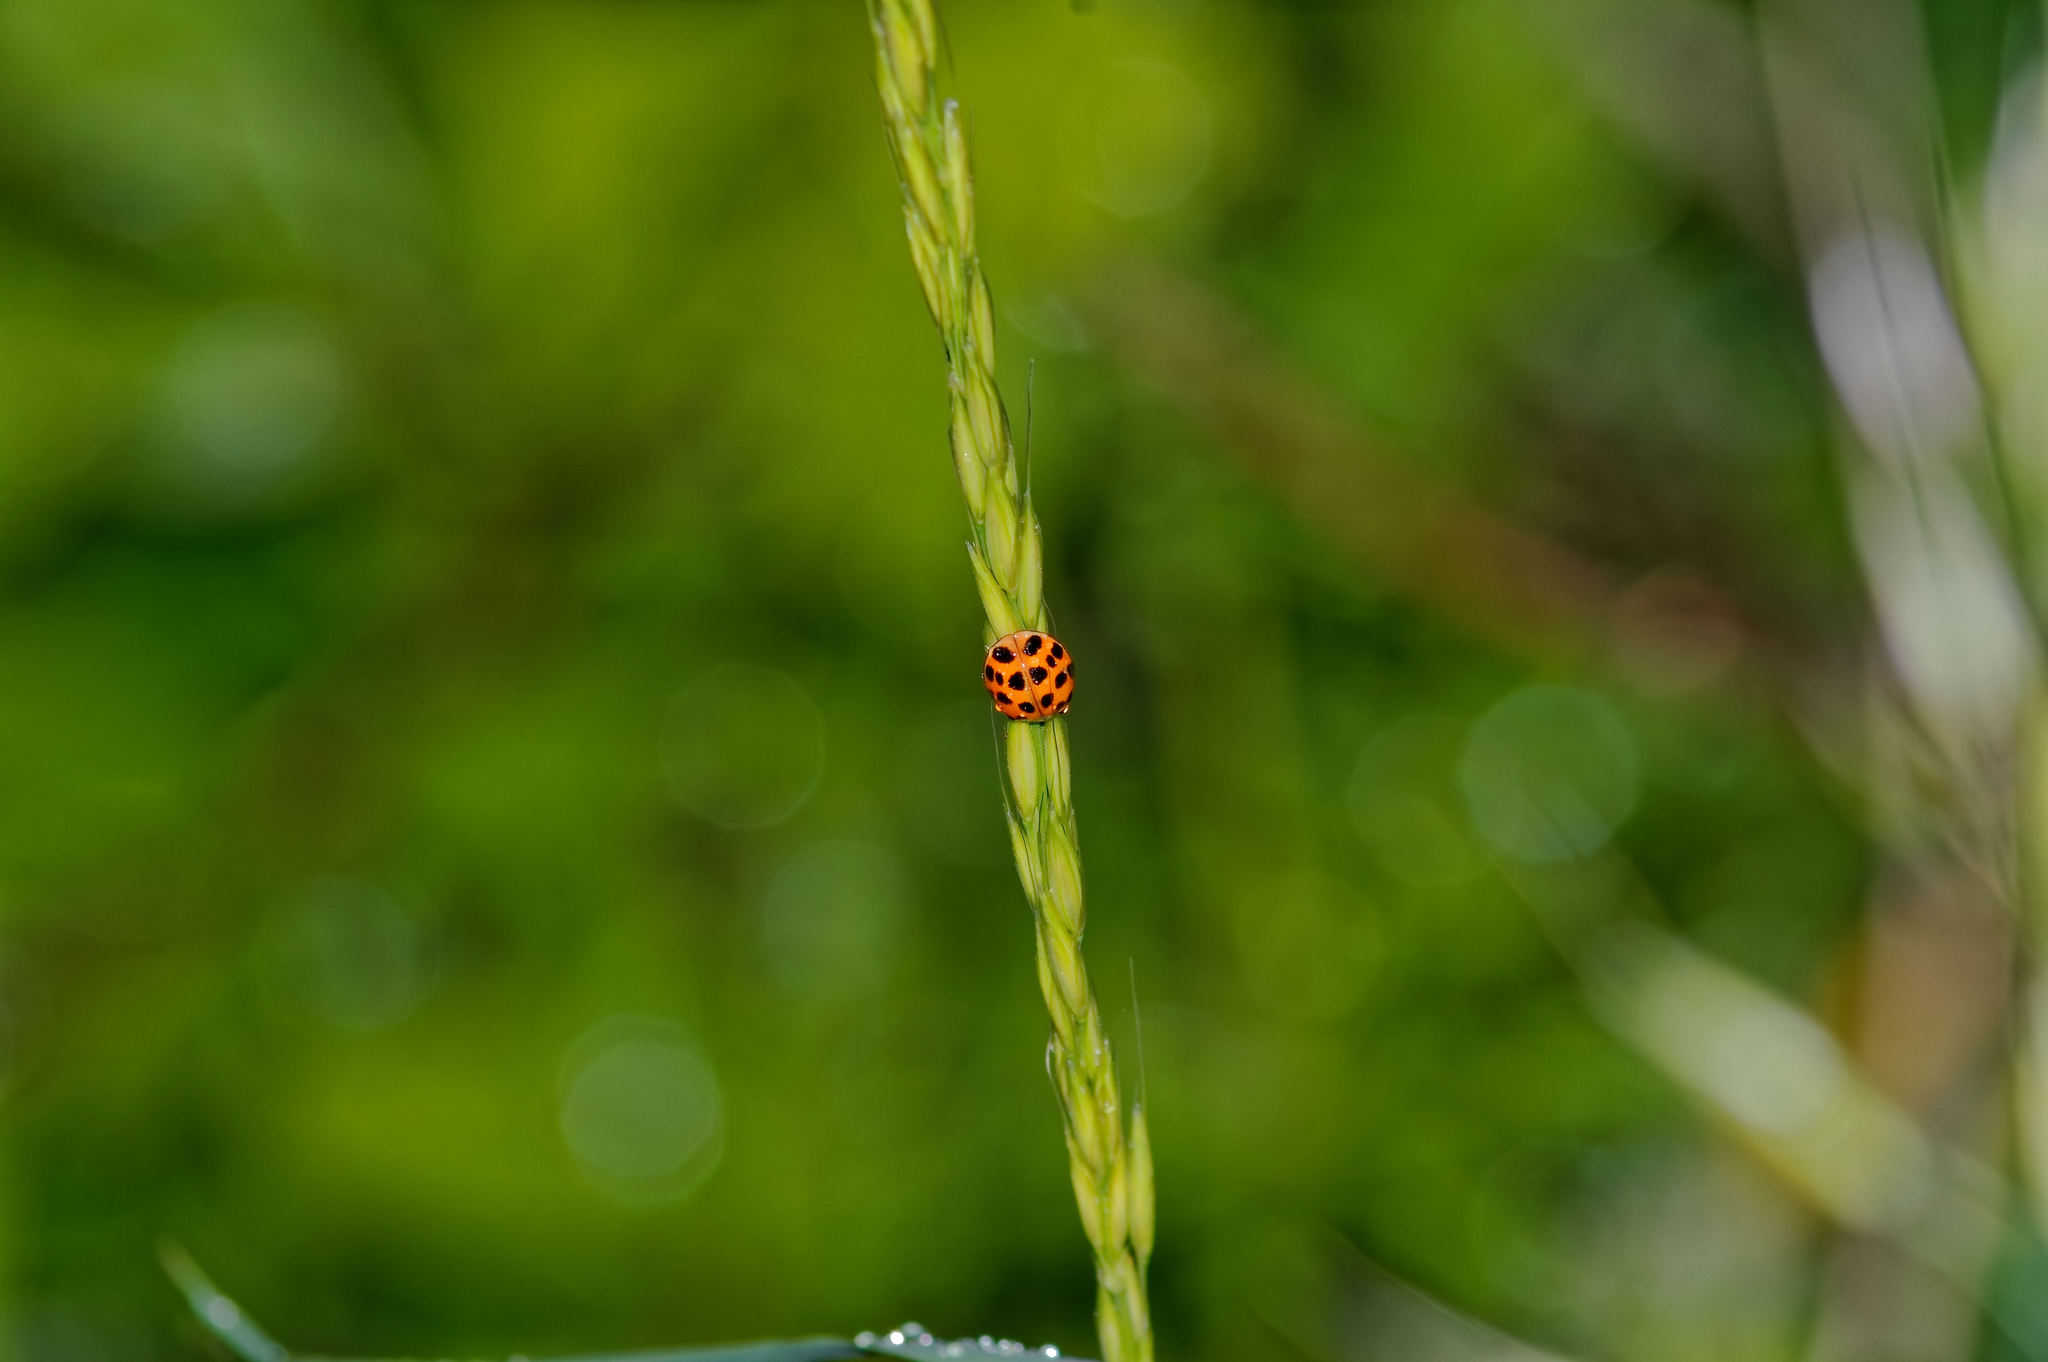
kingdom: Animalia
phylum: Arthropoda
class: Insecta
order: Coleoptera
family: Coccinellidae
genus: Harmonia
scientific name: Harmonia axyridis
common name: Harlequin ladybird
